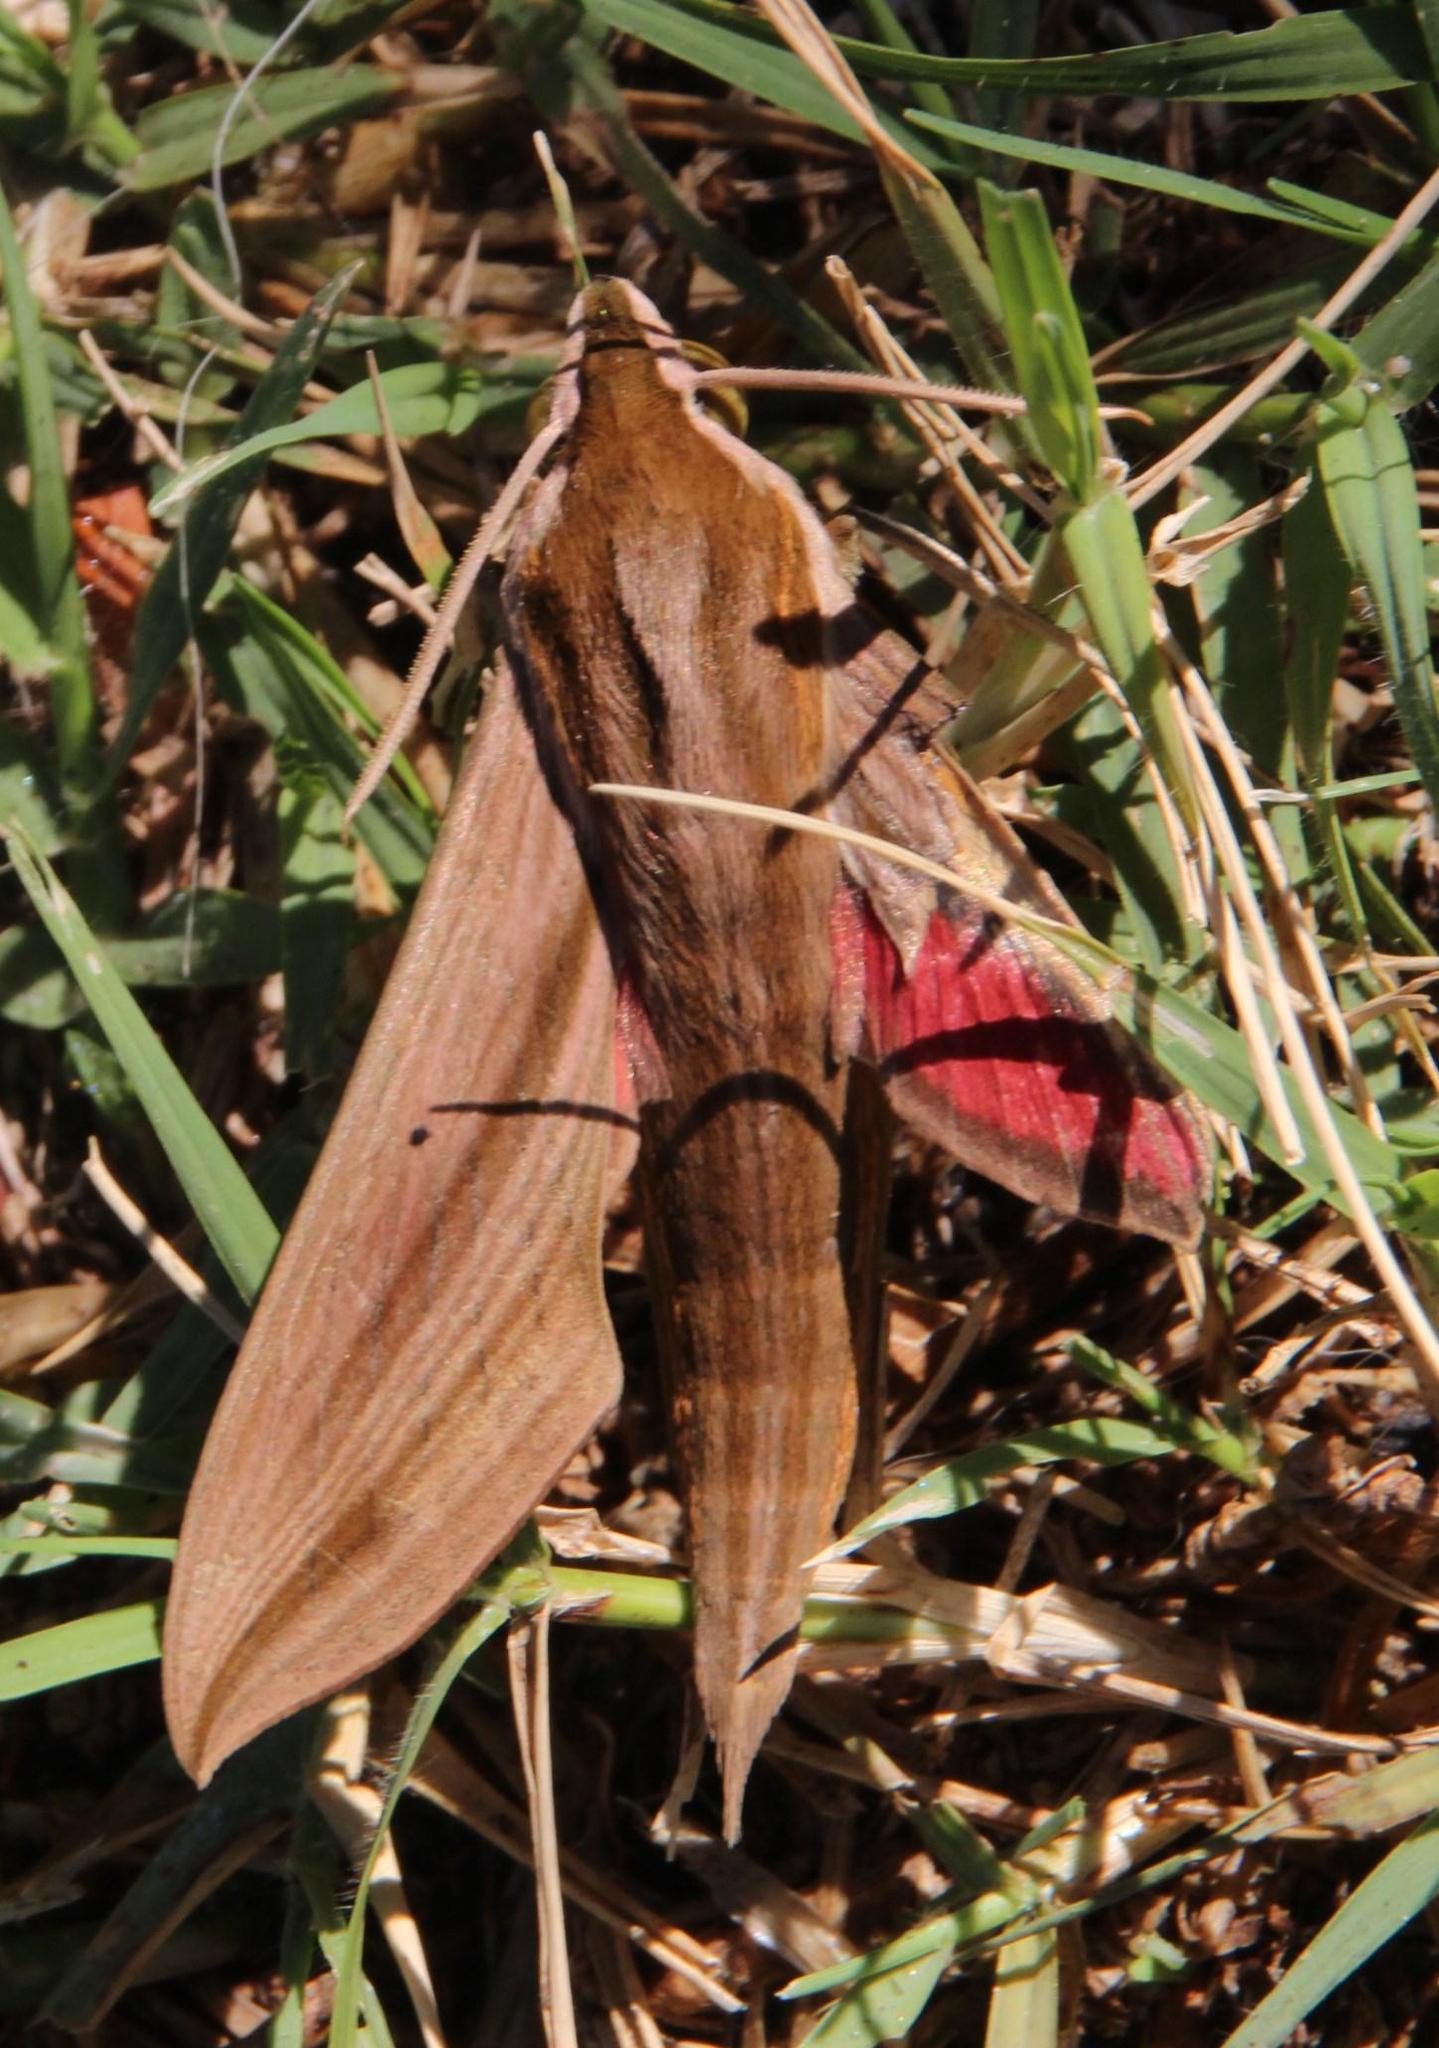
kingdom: Animalia
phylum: Arthropoda
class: Insecta
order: Lepidoptera
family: Sphingidae
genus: Hippotion
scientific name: Hippotion eson
